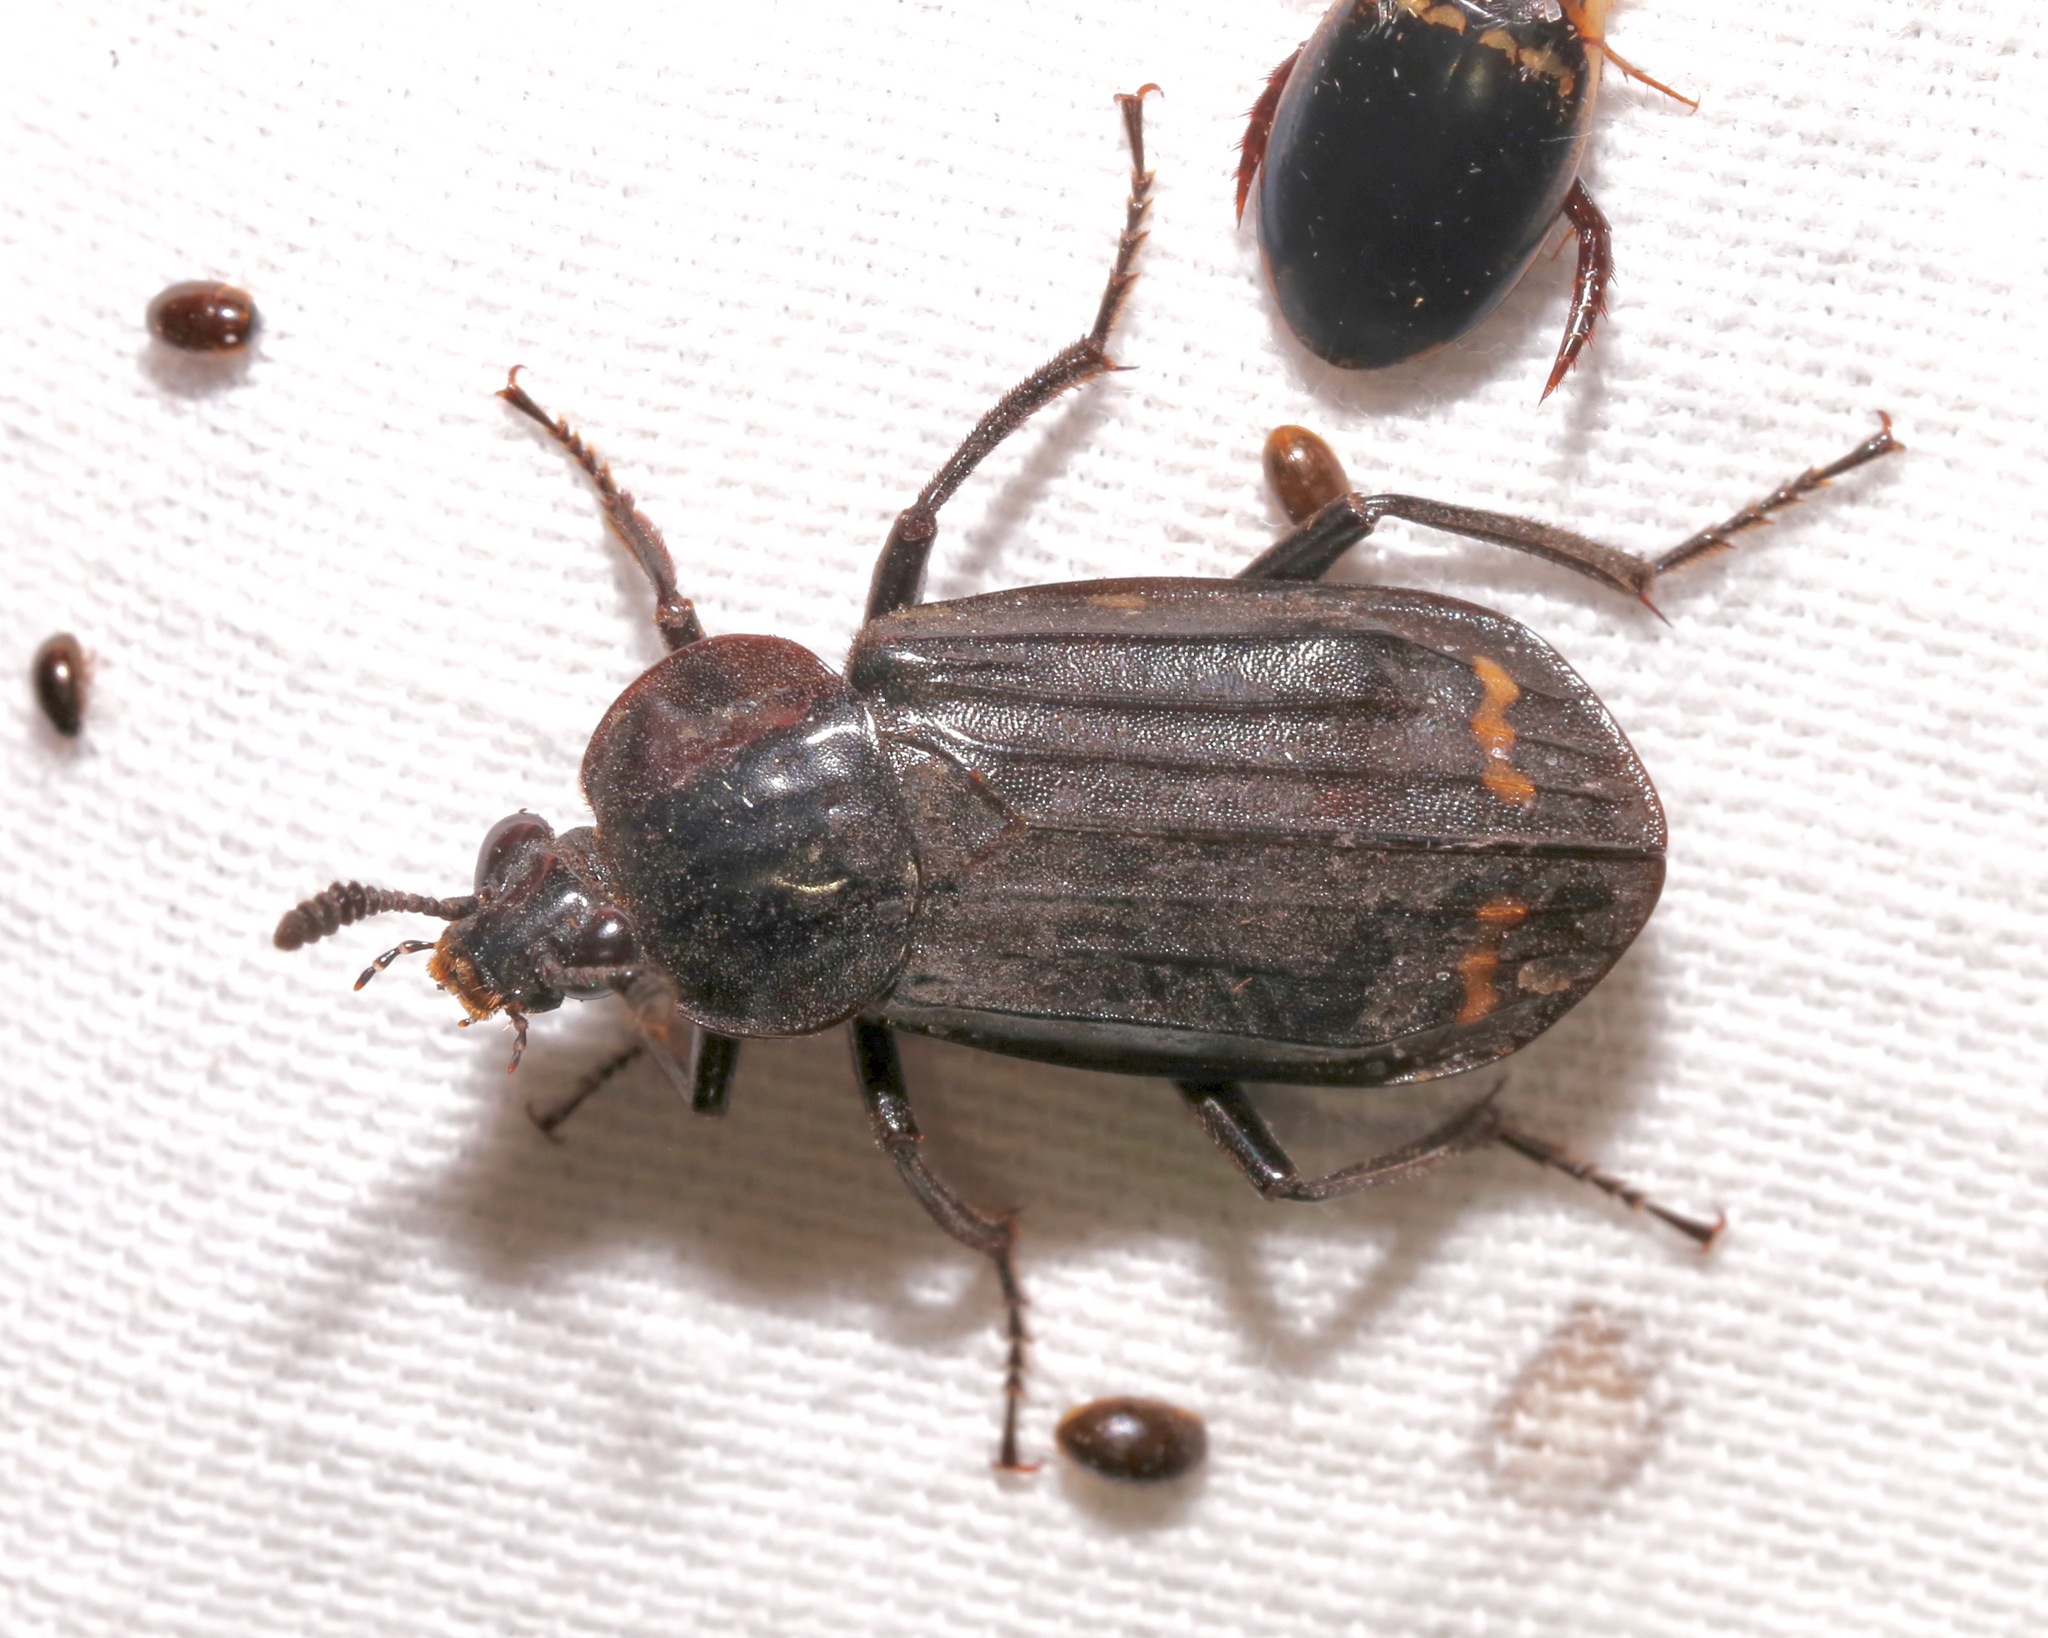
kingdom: Animalia
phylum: Arthropoda
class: Insecta
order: Coleoptera
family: Staphylinidae
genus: Necrodes
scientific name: Necrodes surinamensis
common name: Red-lined carrion beetle
